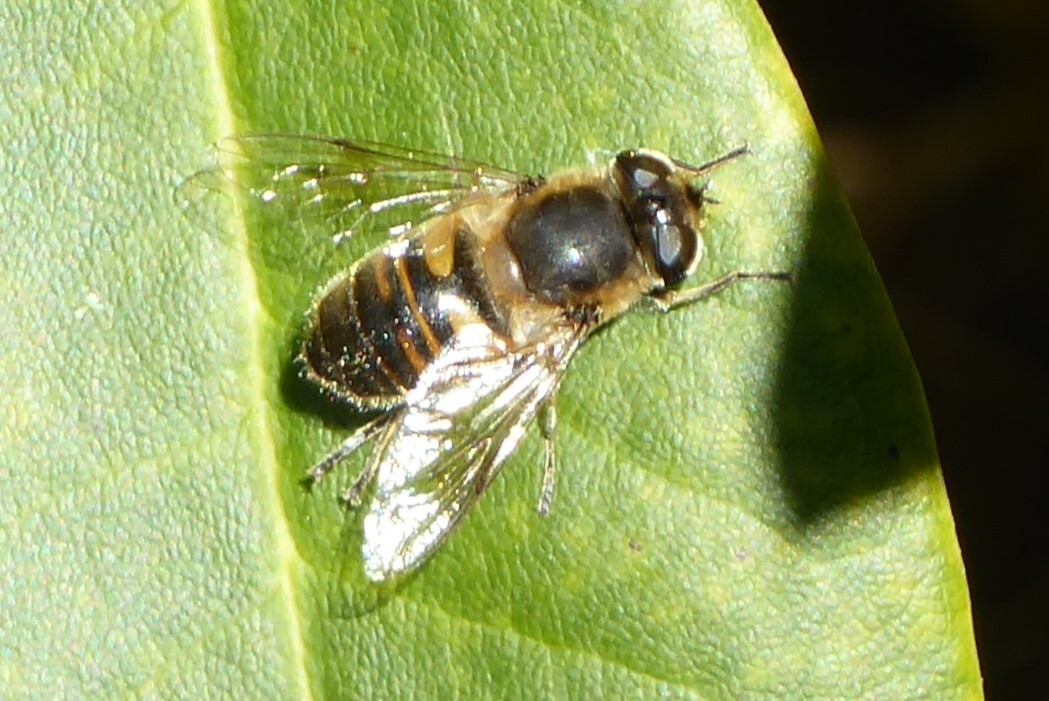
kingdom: Animalia
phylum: Arthropoda
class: Insecta
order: Diptera
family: Syrphidae
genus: Eristalis
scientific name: Eristalis tenax
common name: Drone fly
